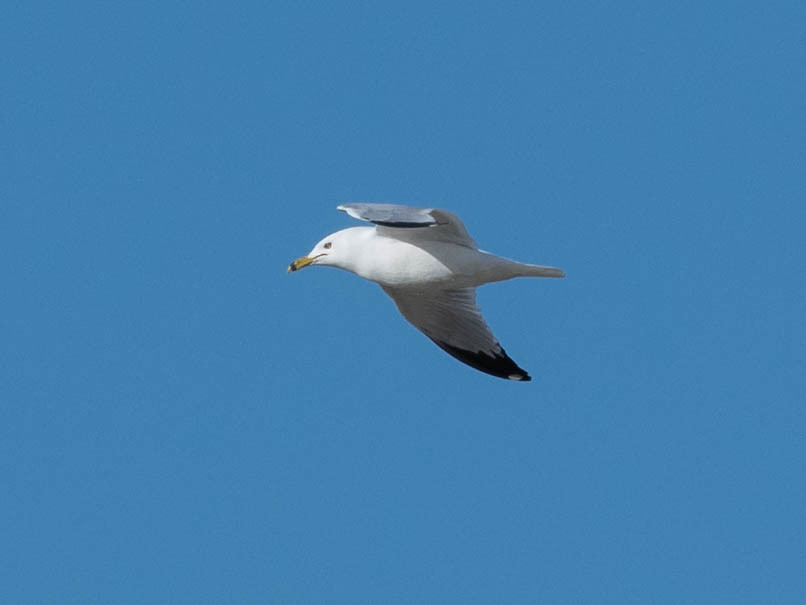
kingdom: Animalia
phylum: Chordata
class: Aves
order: Charadriiformes
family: Laridae
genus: Larus
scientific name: Larus delawarensis
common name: Ring-billed gull
